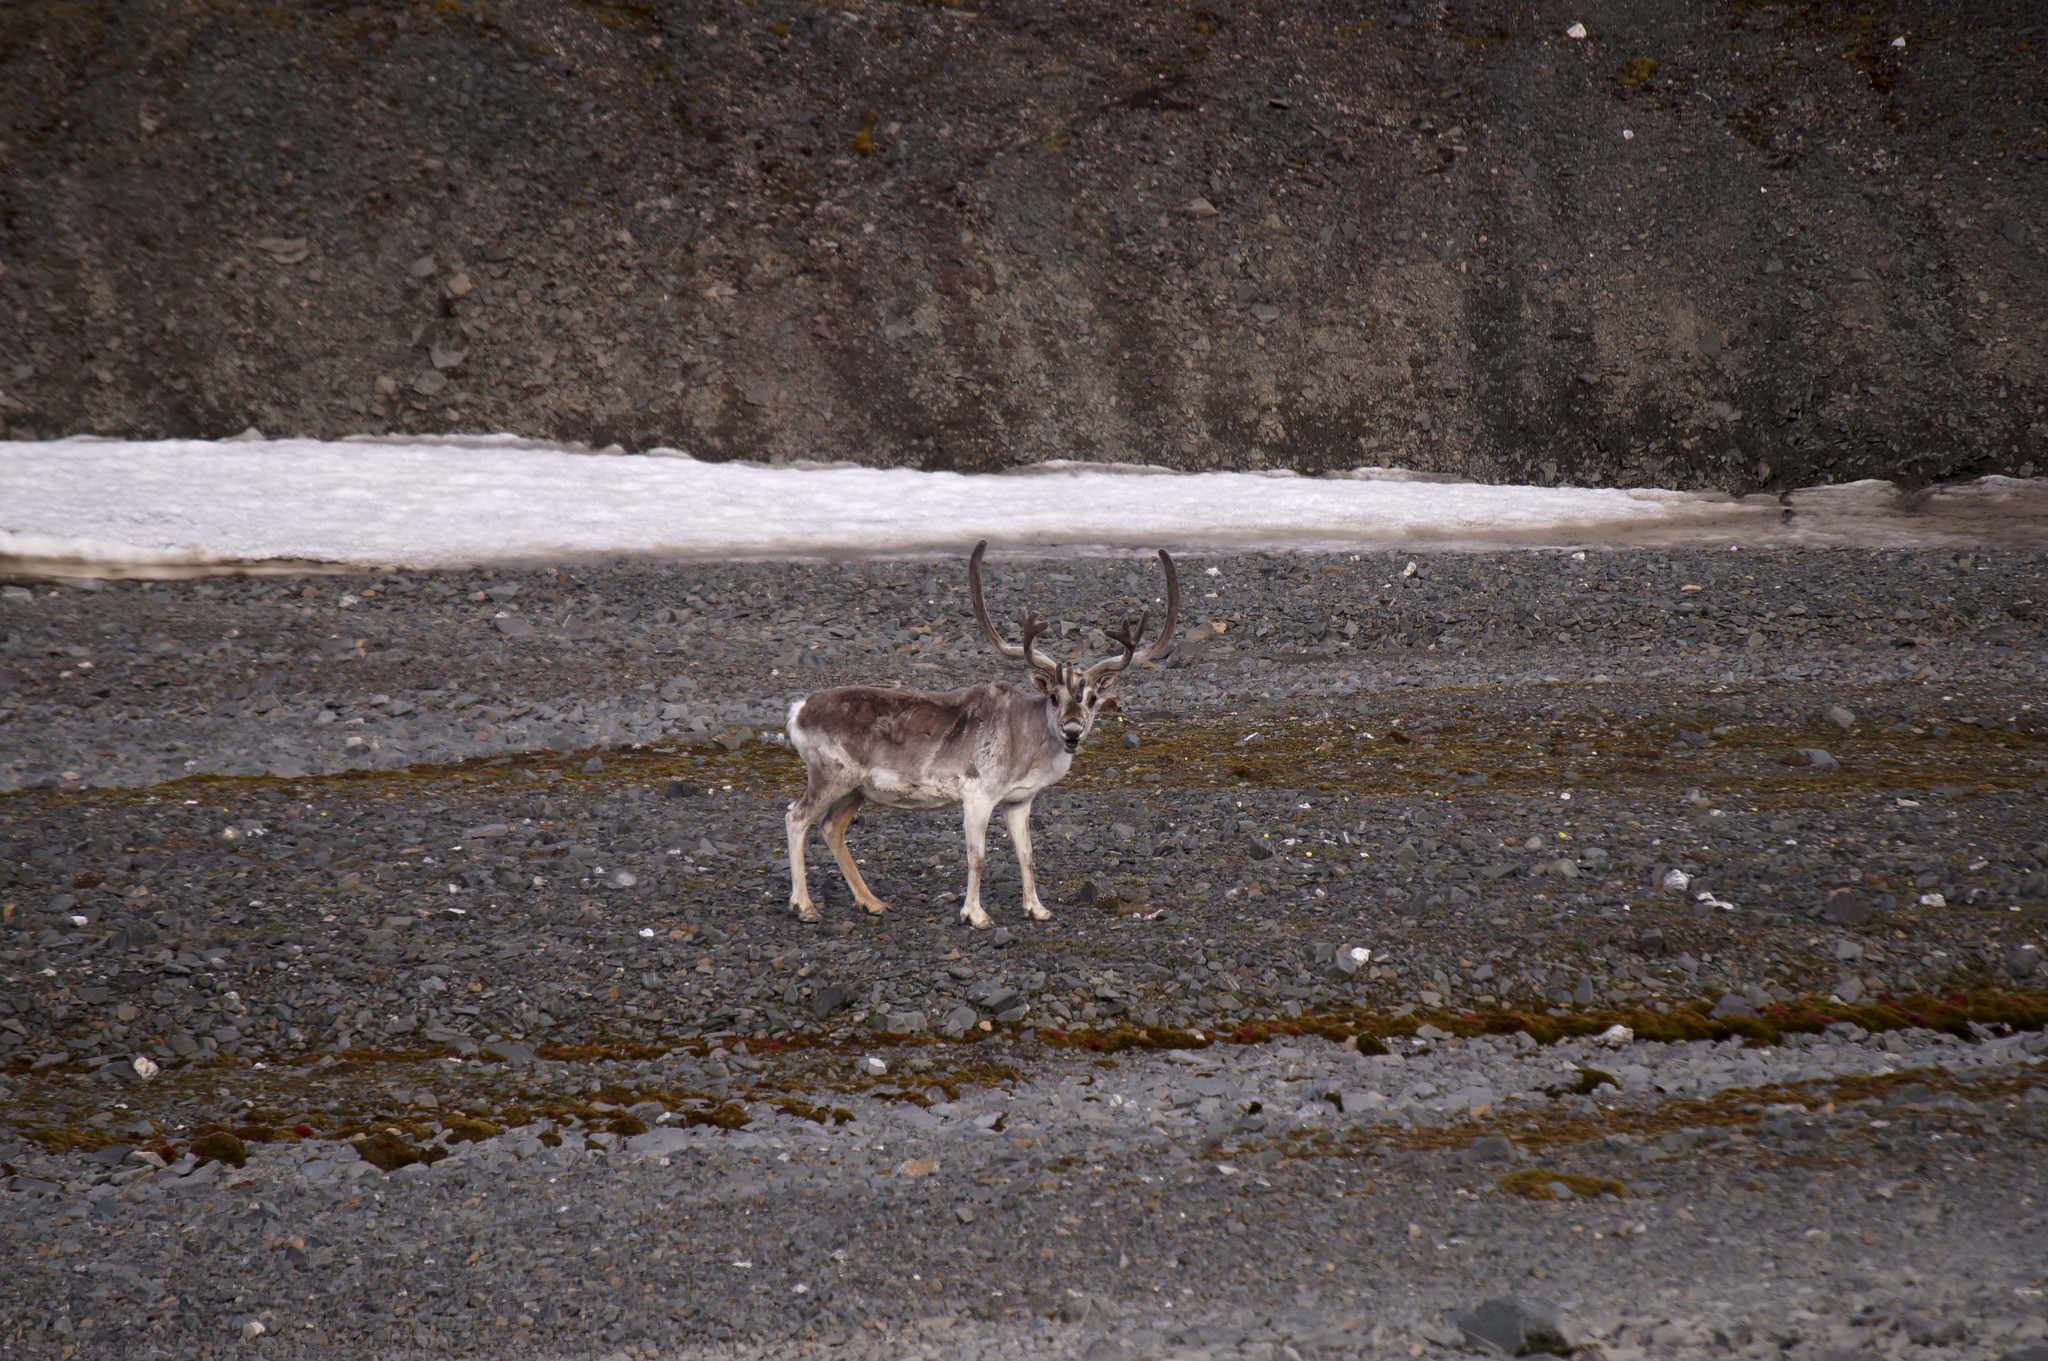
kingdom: Animalia
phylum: Chordata
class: Mammalia
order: Artiodactyla
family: Cervidae
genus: Rangifer
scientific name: Rangifer tarandus
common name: Reindeer
